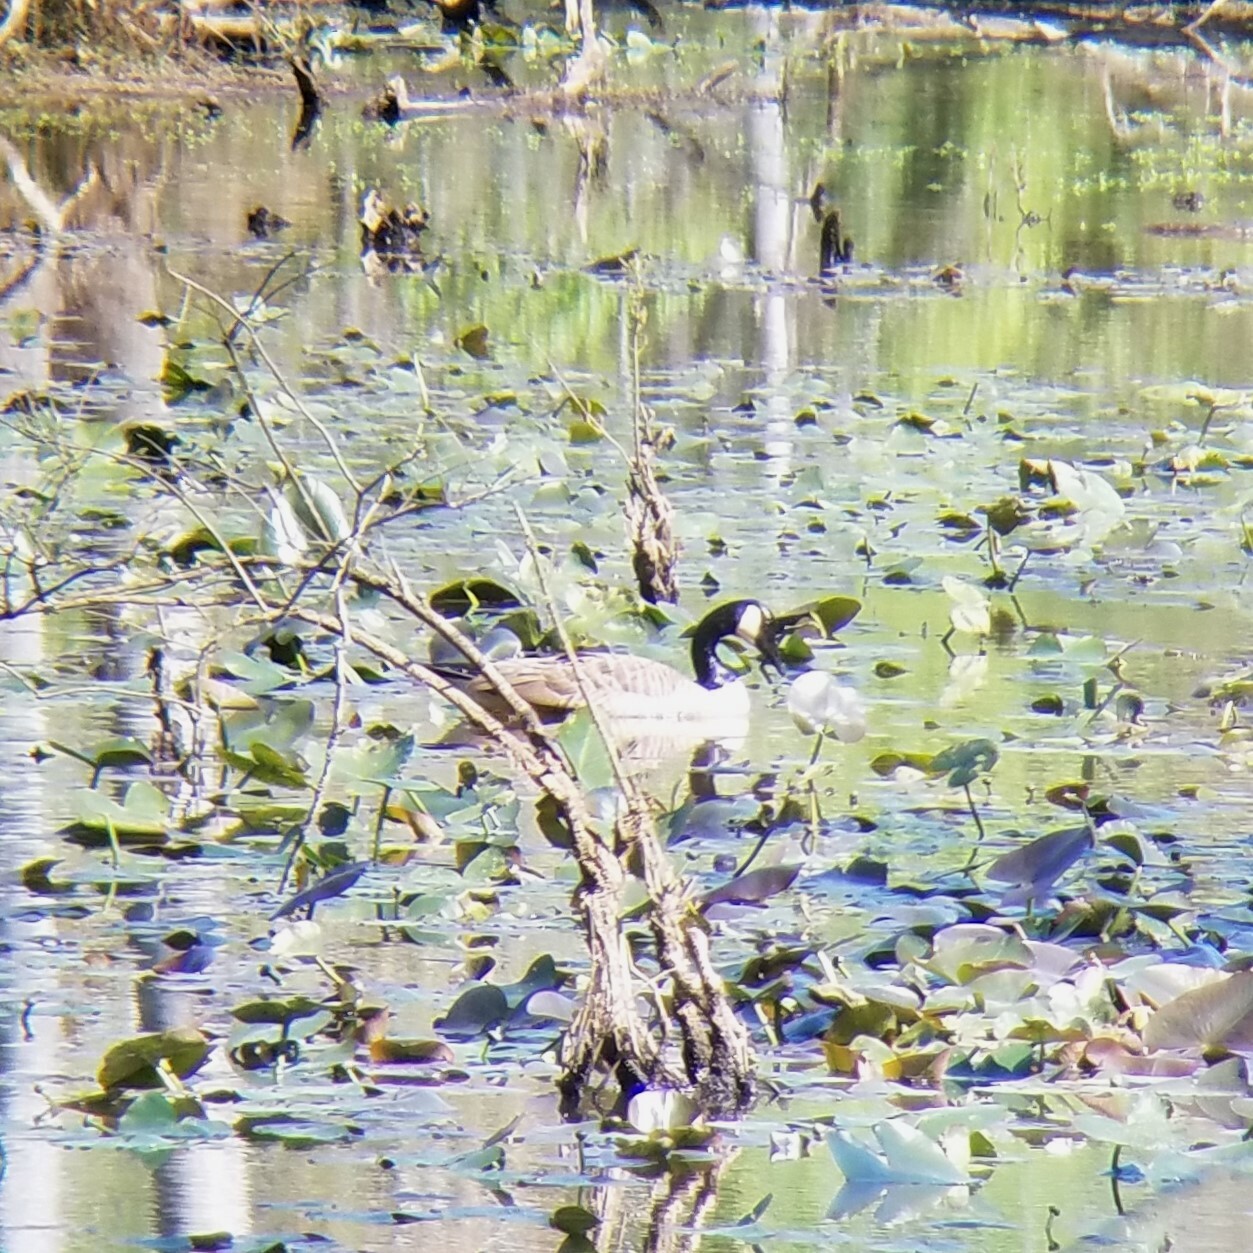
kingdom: Animalia
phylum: Chordata
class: Aves
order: Anseriformes
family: Anatidae
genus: Branta
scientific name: Branta canadensis
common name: Canada goose
